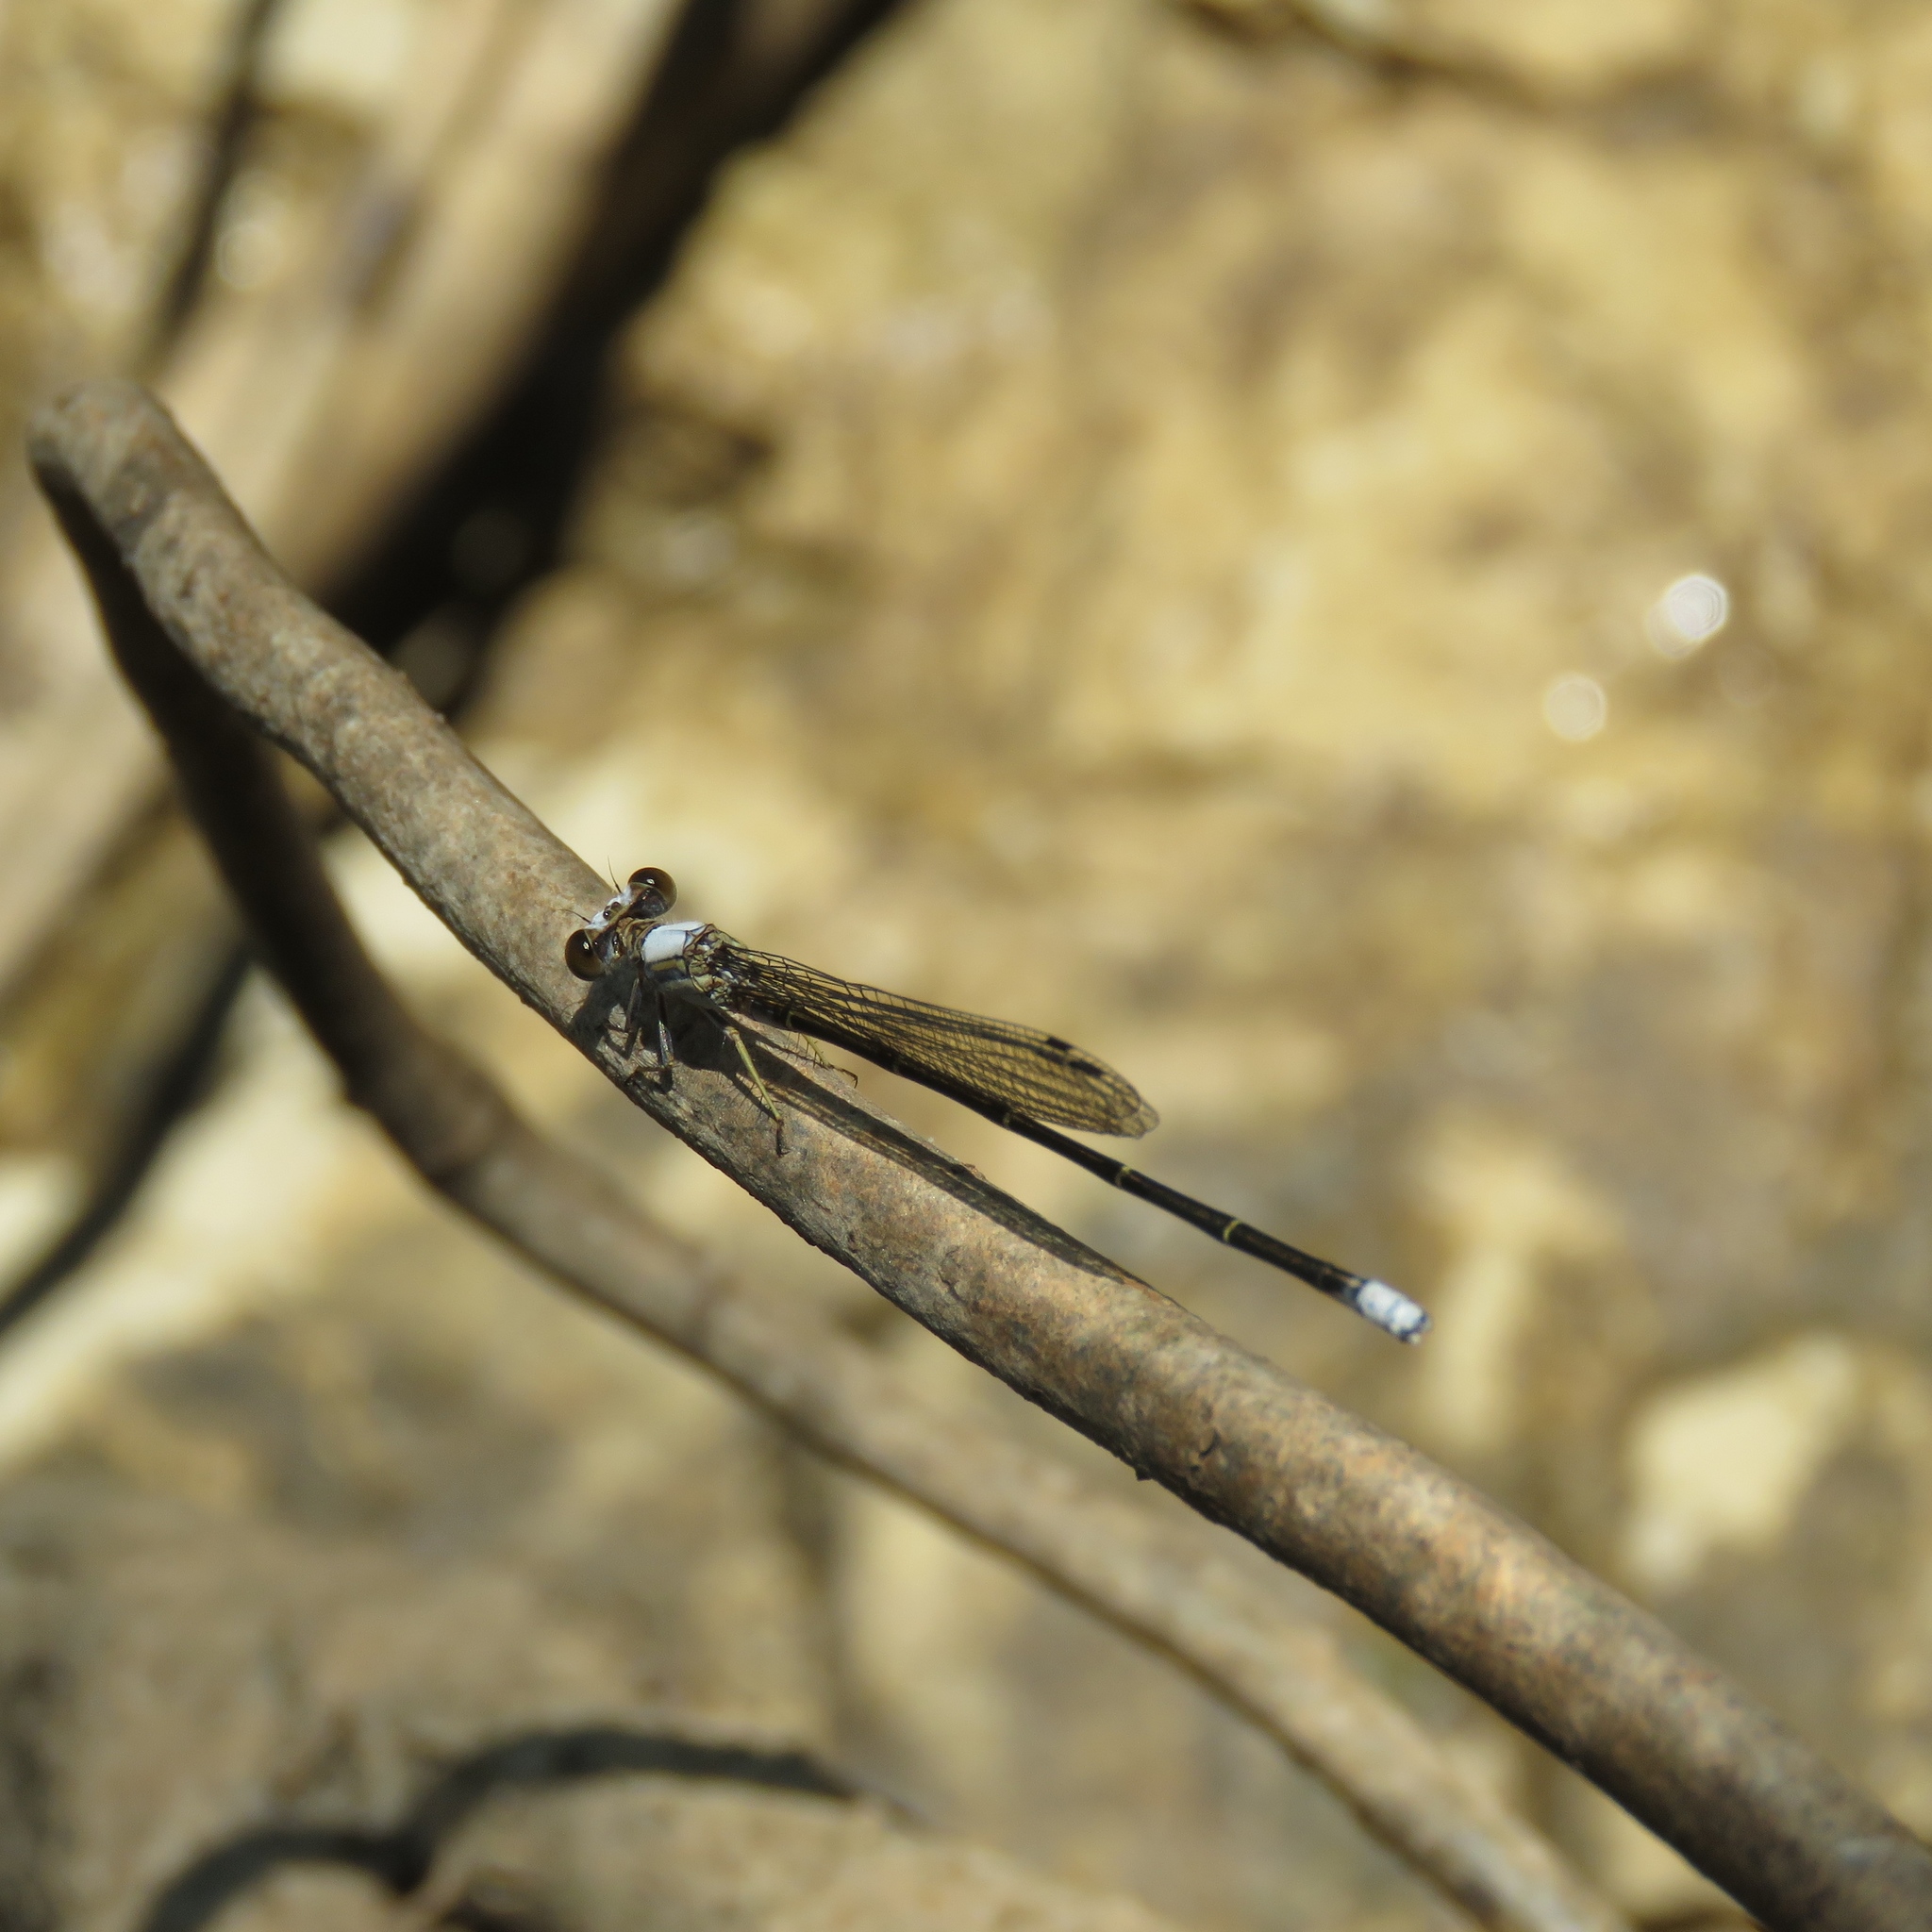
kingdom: Animalia
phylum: Arthropoda
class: Insecta
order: Odonata
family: Coenagrionidae
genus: Argia
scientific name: Argia moesta
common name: Powdered dancer
